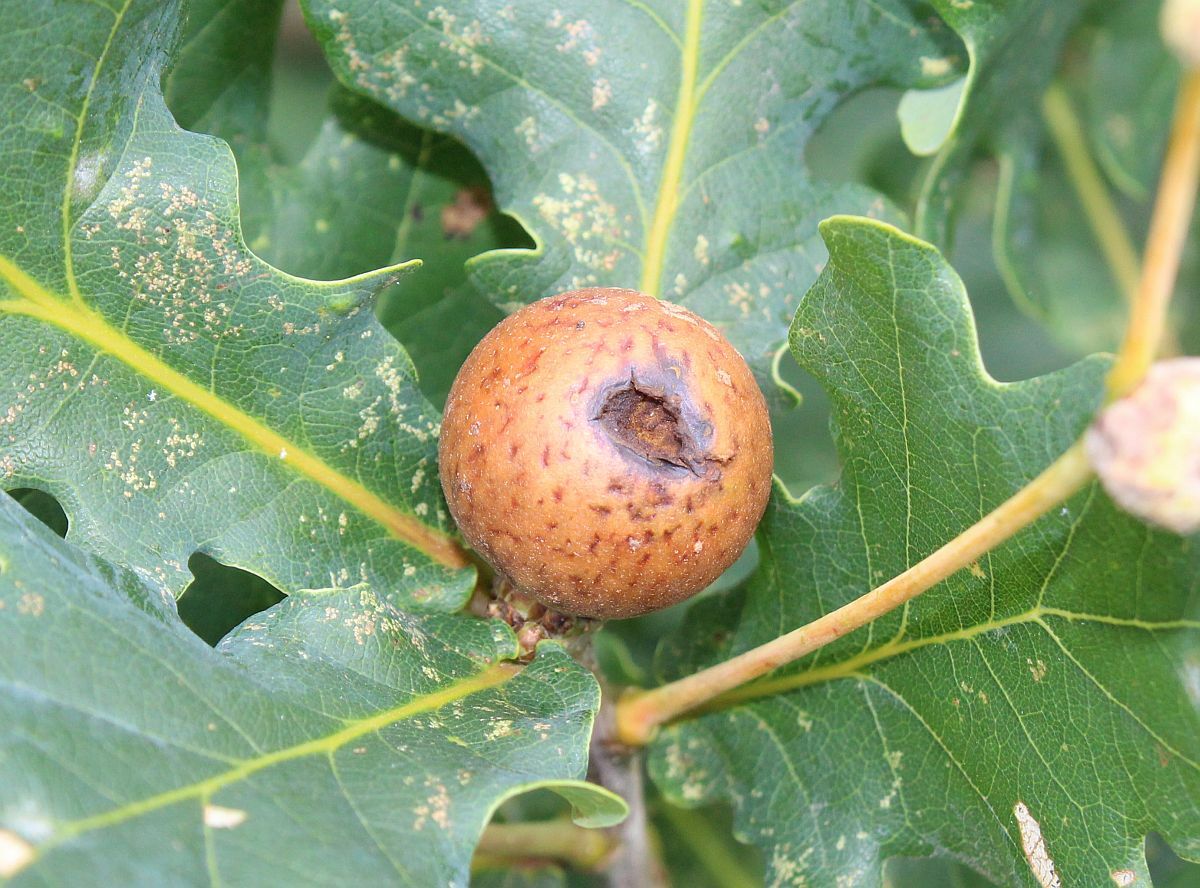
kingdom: Animalia
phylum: Arthropoda
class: Insecta
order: Hymenoptera
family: Cynipidae
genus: Andricus
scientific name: Andricus kollari
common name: Marble gall
